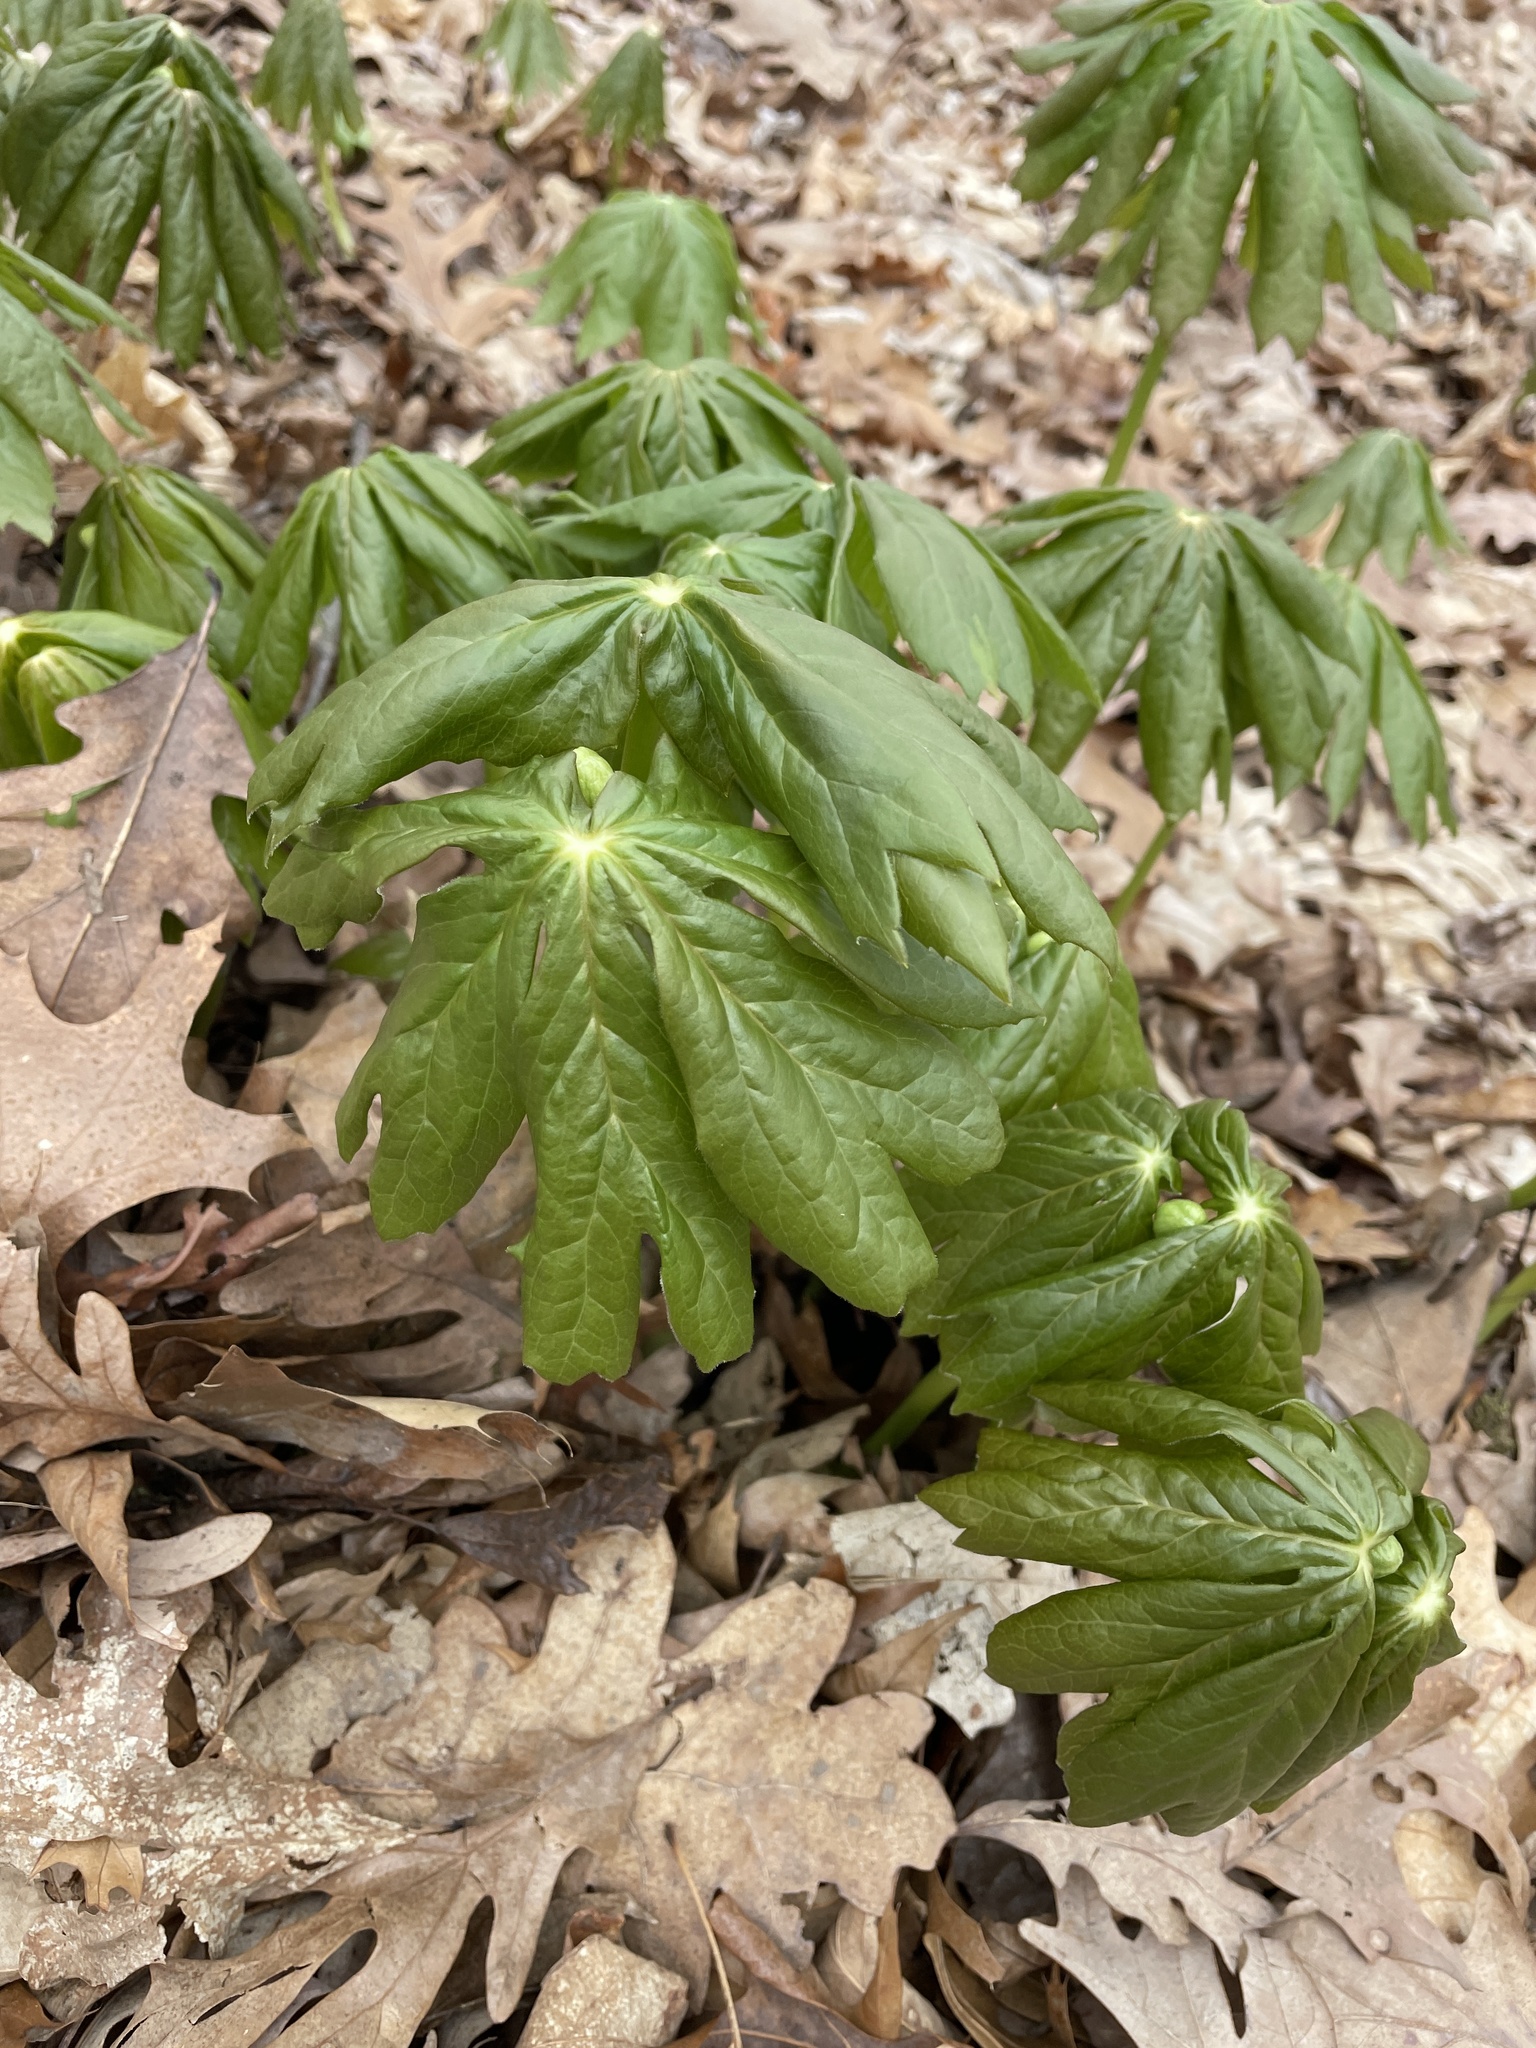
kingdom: Plantae
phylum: Tracheophyta
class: Magnoliopsida
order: Ranunculales
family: Berberidaceae
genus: Podophyllum
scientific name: Podophyllum peltatum
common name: Wild mandrake
